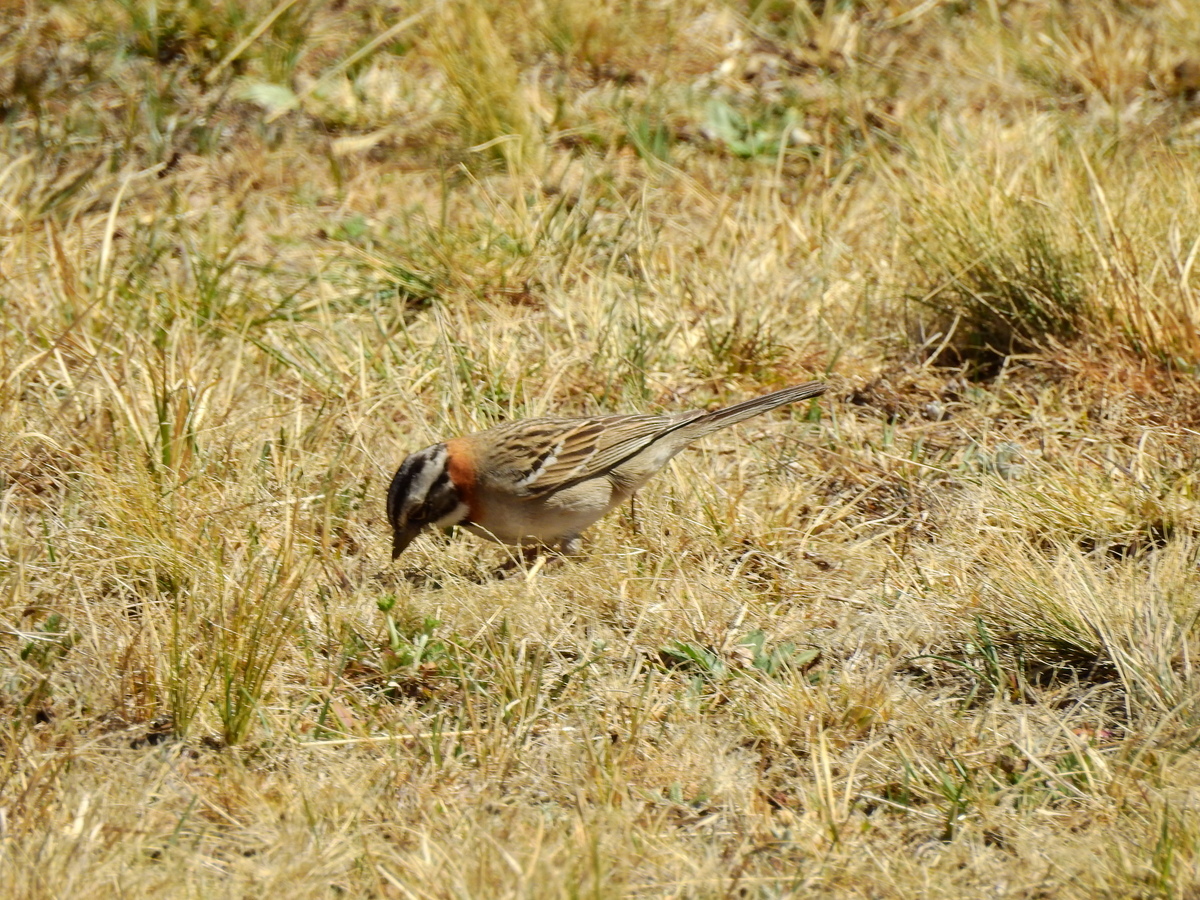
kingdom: Animalia
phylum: Chordata
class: Aves
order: Passeriformes
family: Passerellidae
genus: Zonotrichia
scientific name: Zonotrichia capensis
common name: Rufous-collared sparrow
